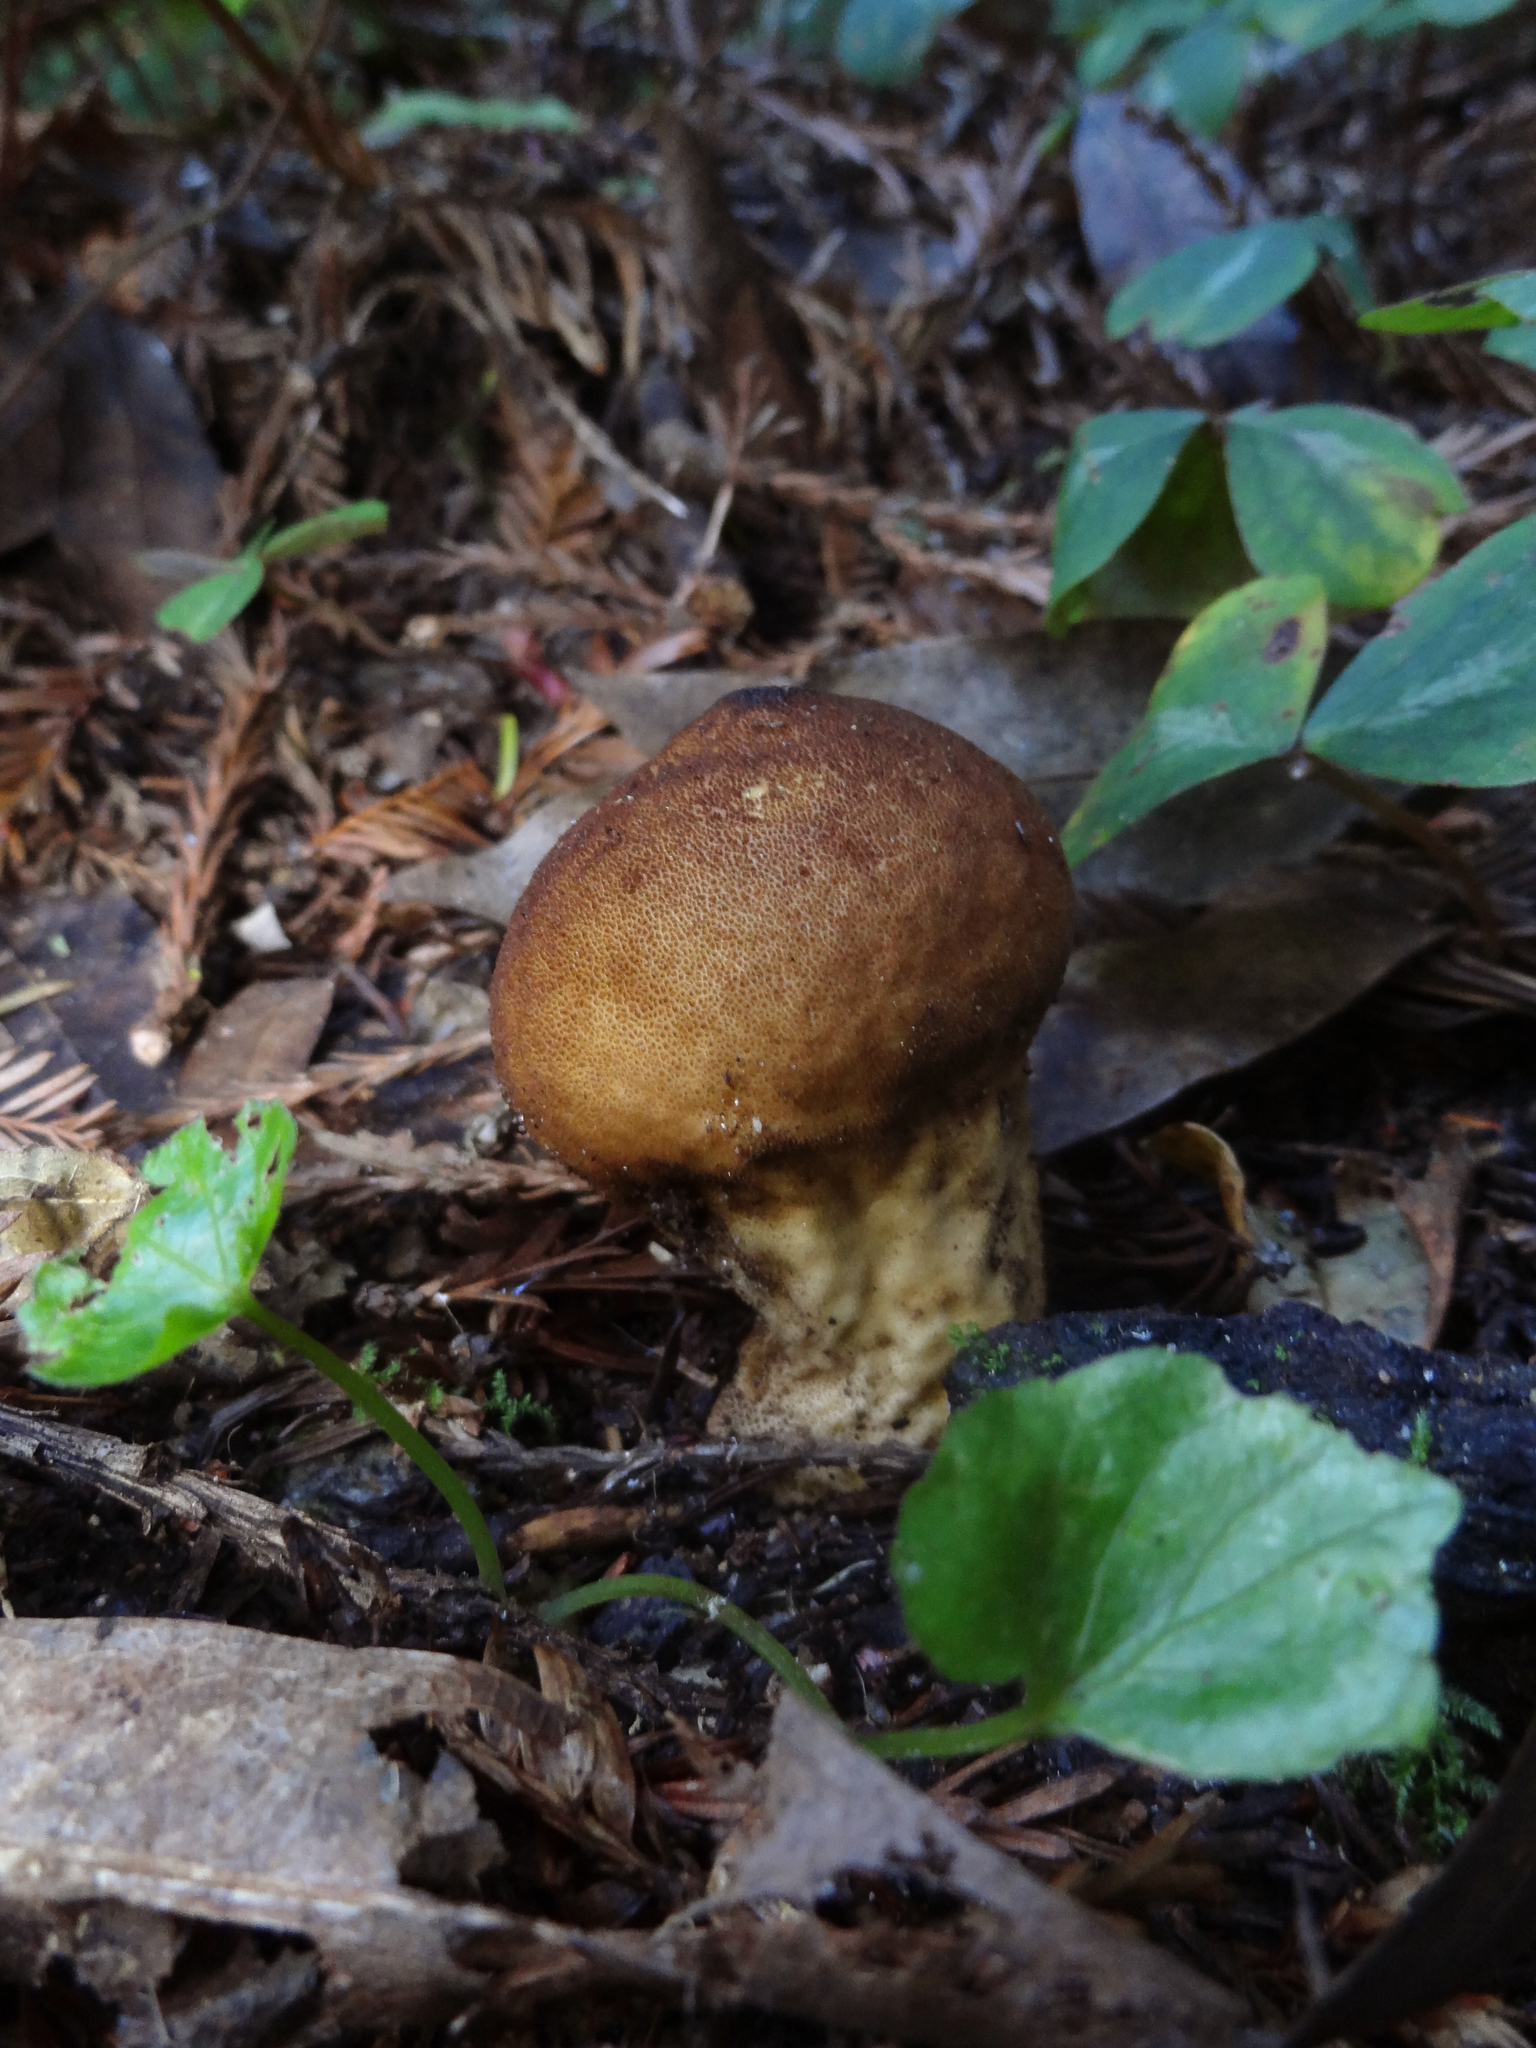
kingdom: Fungi
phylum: Basidiomycota
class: Agaricomycetes
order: Agaricales
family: Lycoperdaceae
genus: Lycoperdon
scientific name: Lycoperdon umbrinum
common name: Umber-brown puffball
